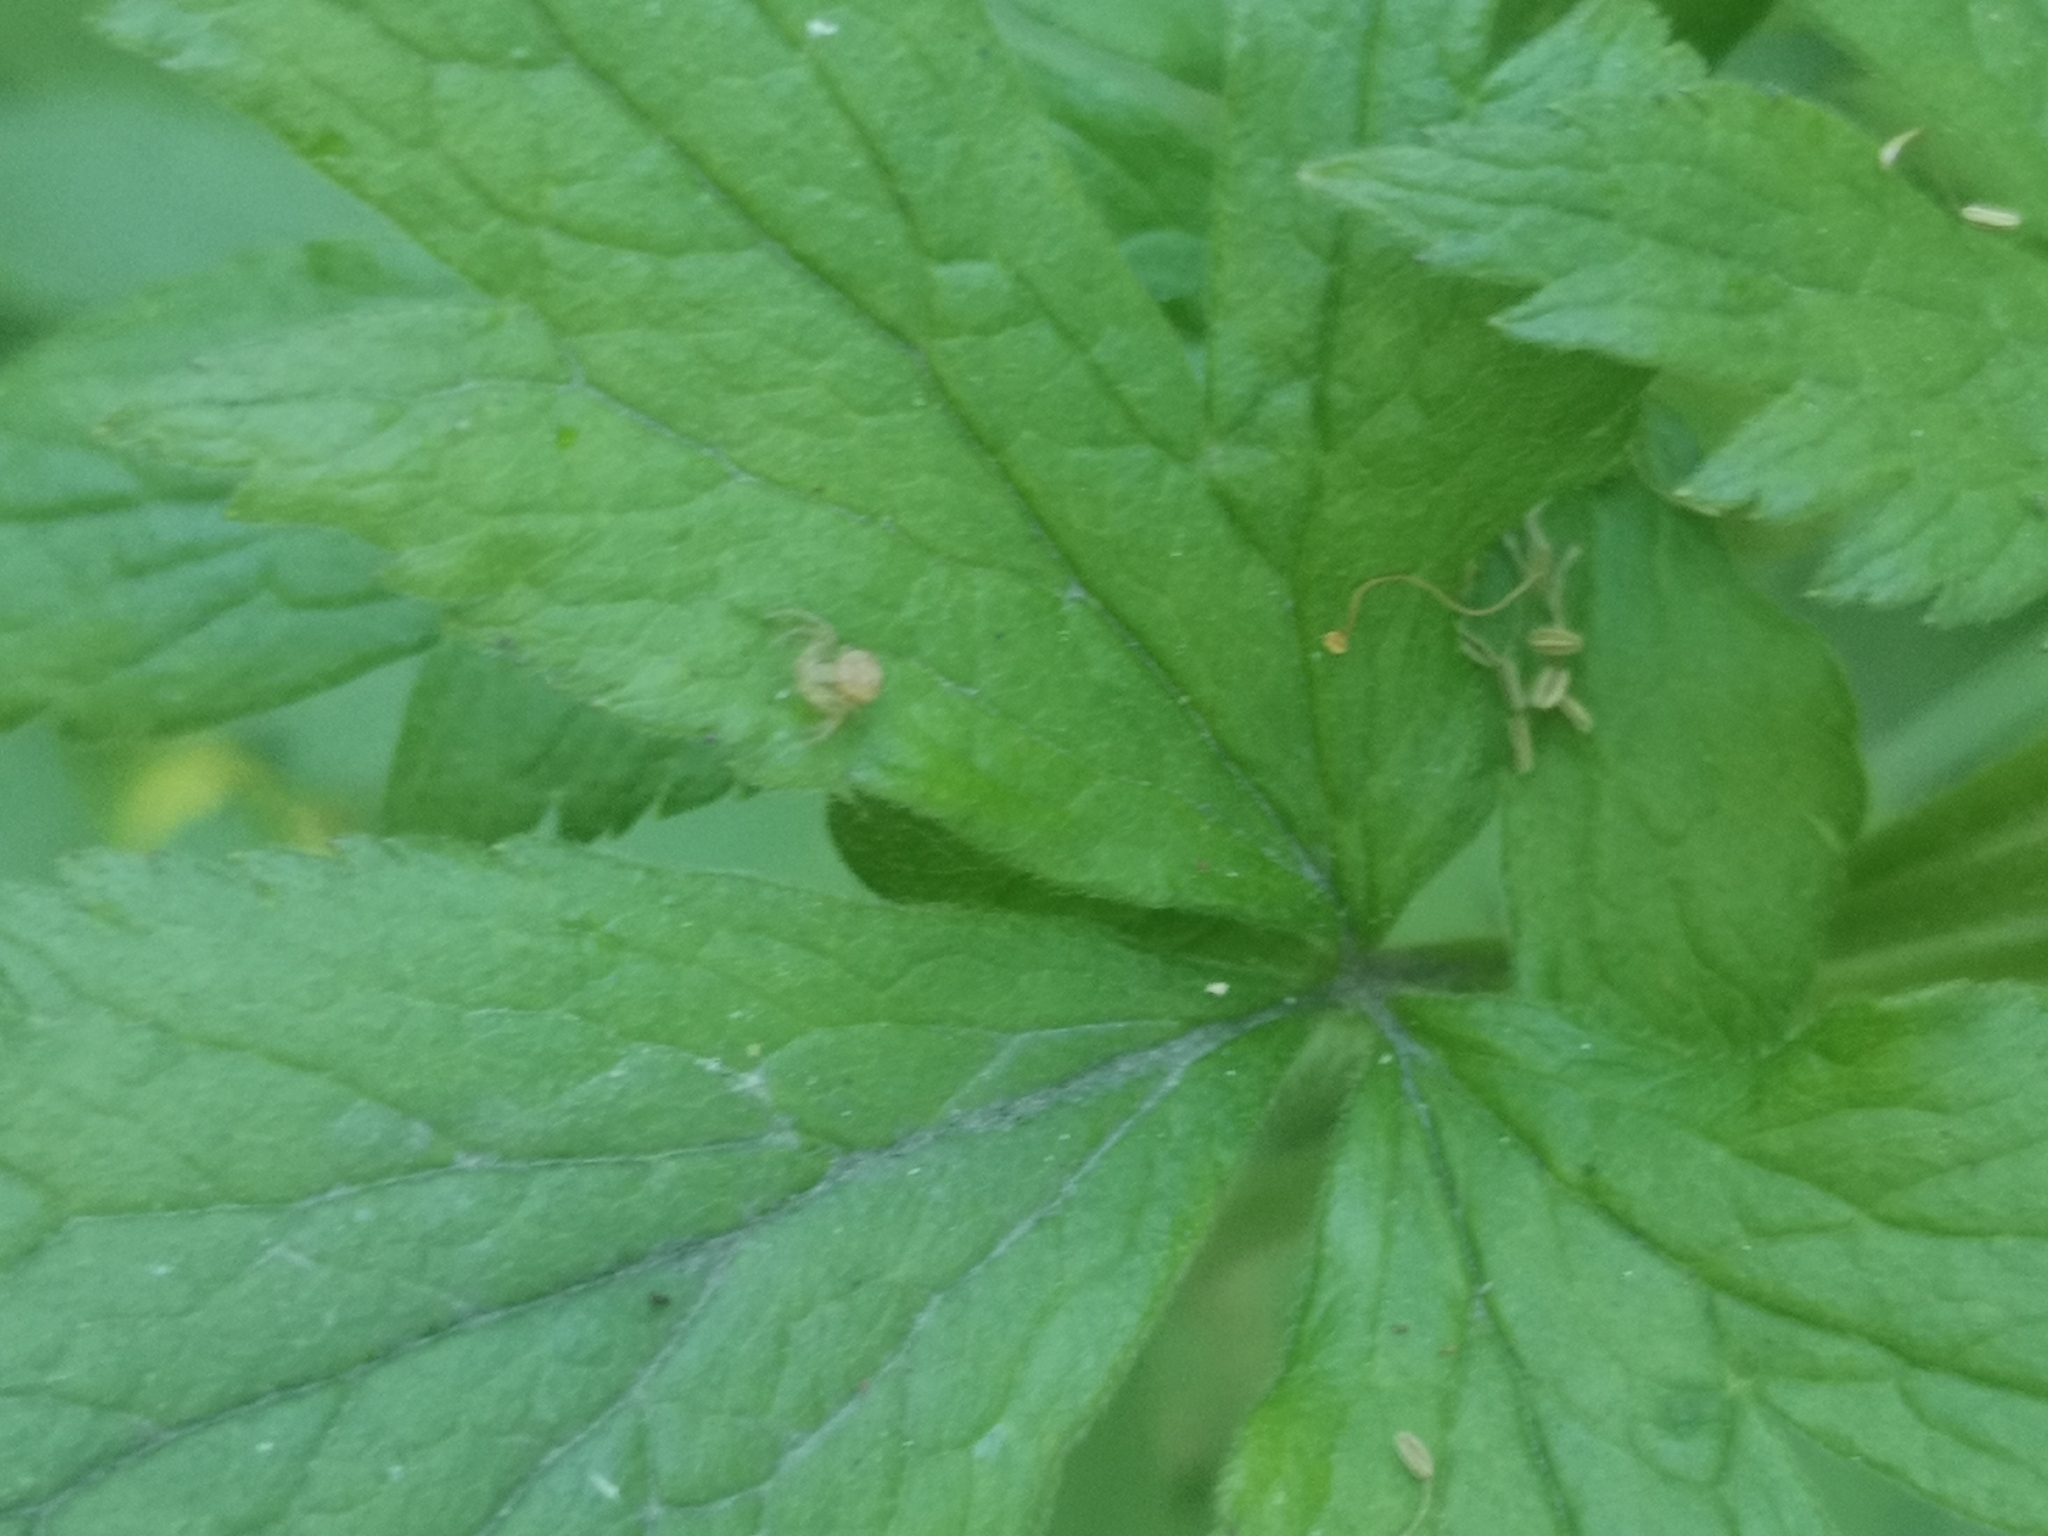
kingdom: Plantae
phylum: Tracheophyta
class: Magnoliopsida
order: Ranunculales
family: Ranunculaceae
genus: Anemone
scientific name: Anemone virginiana
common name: Tall anemone
